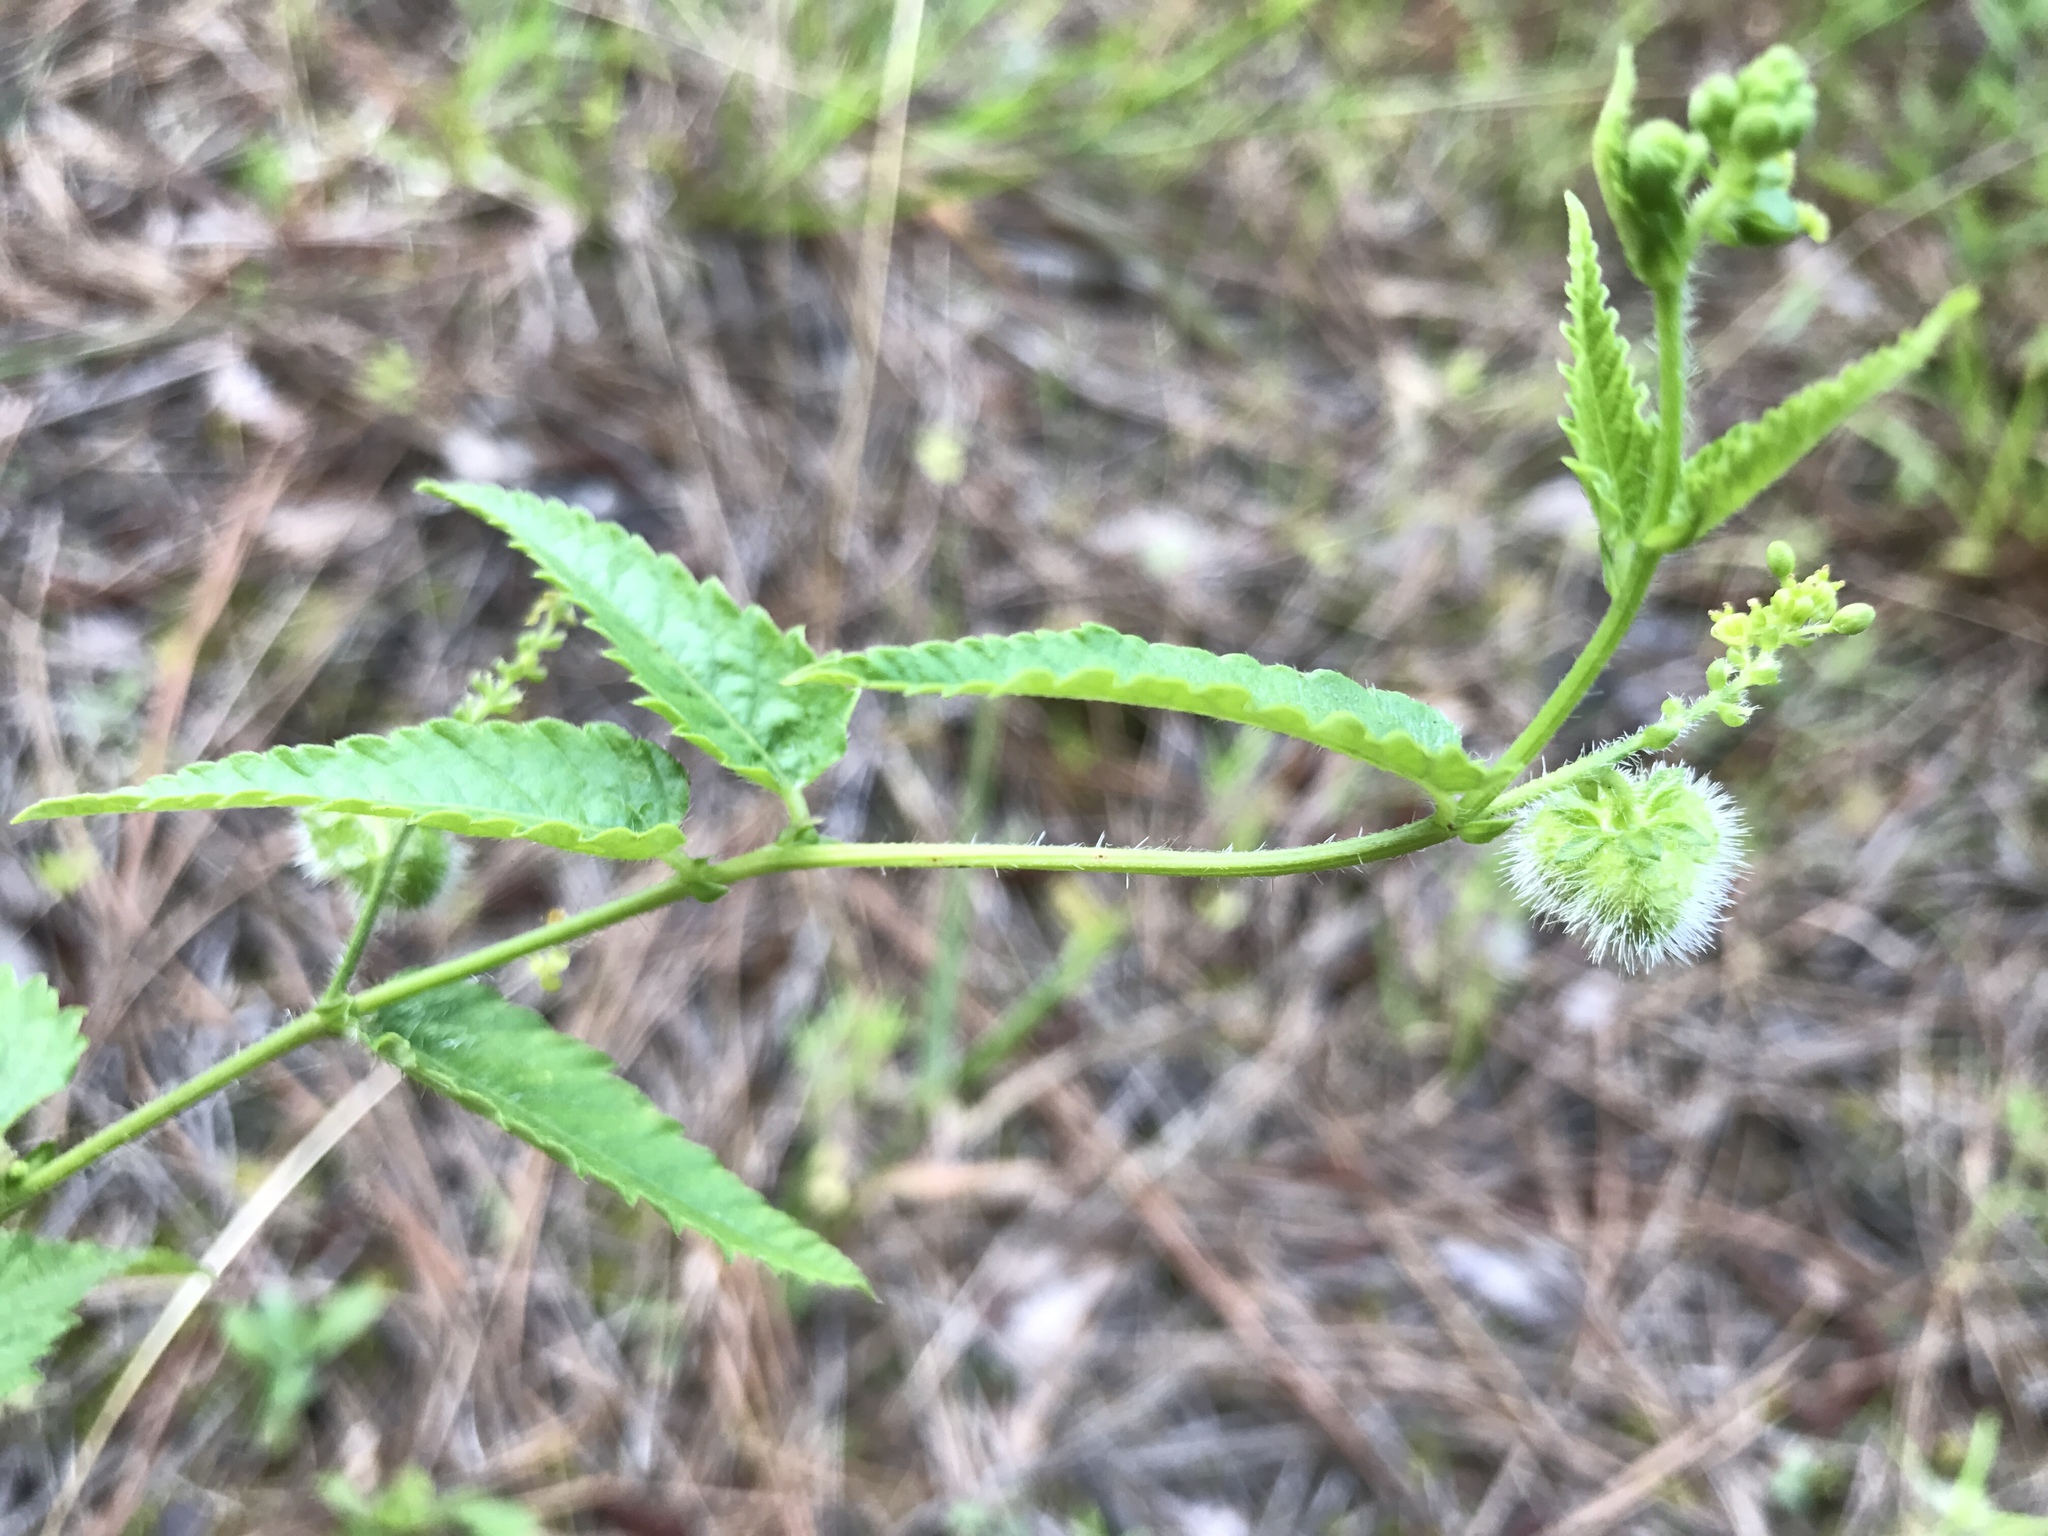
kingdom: Plantae
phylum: Tracheophyta
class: Magnoliopsida
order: Malpighiales
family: Euphorbiaceae
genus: Tragia
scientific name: Tragia urticifolia
